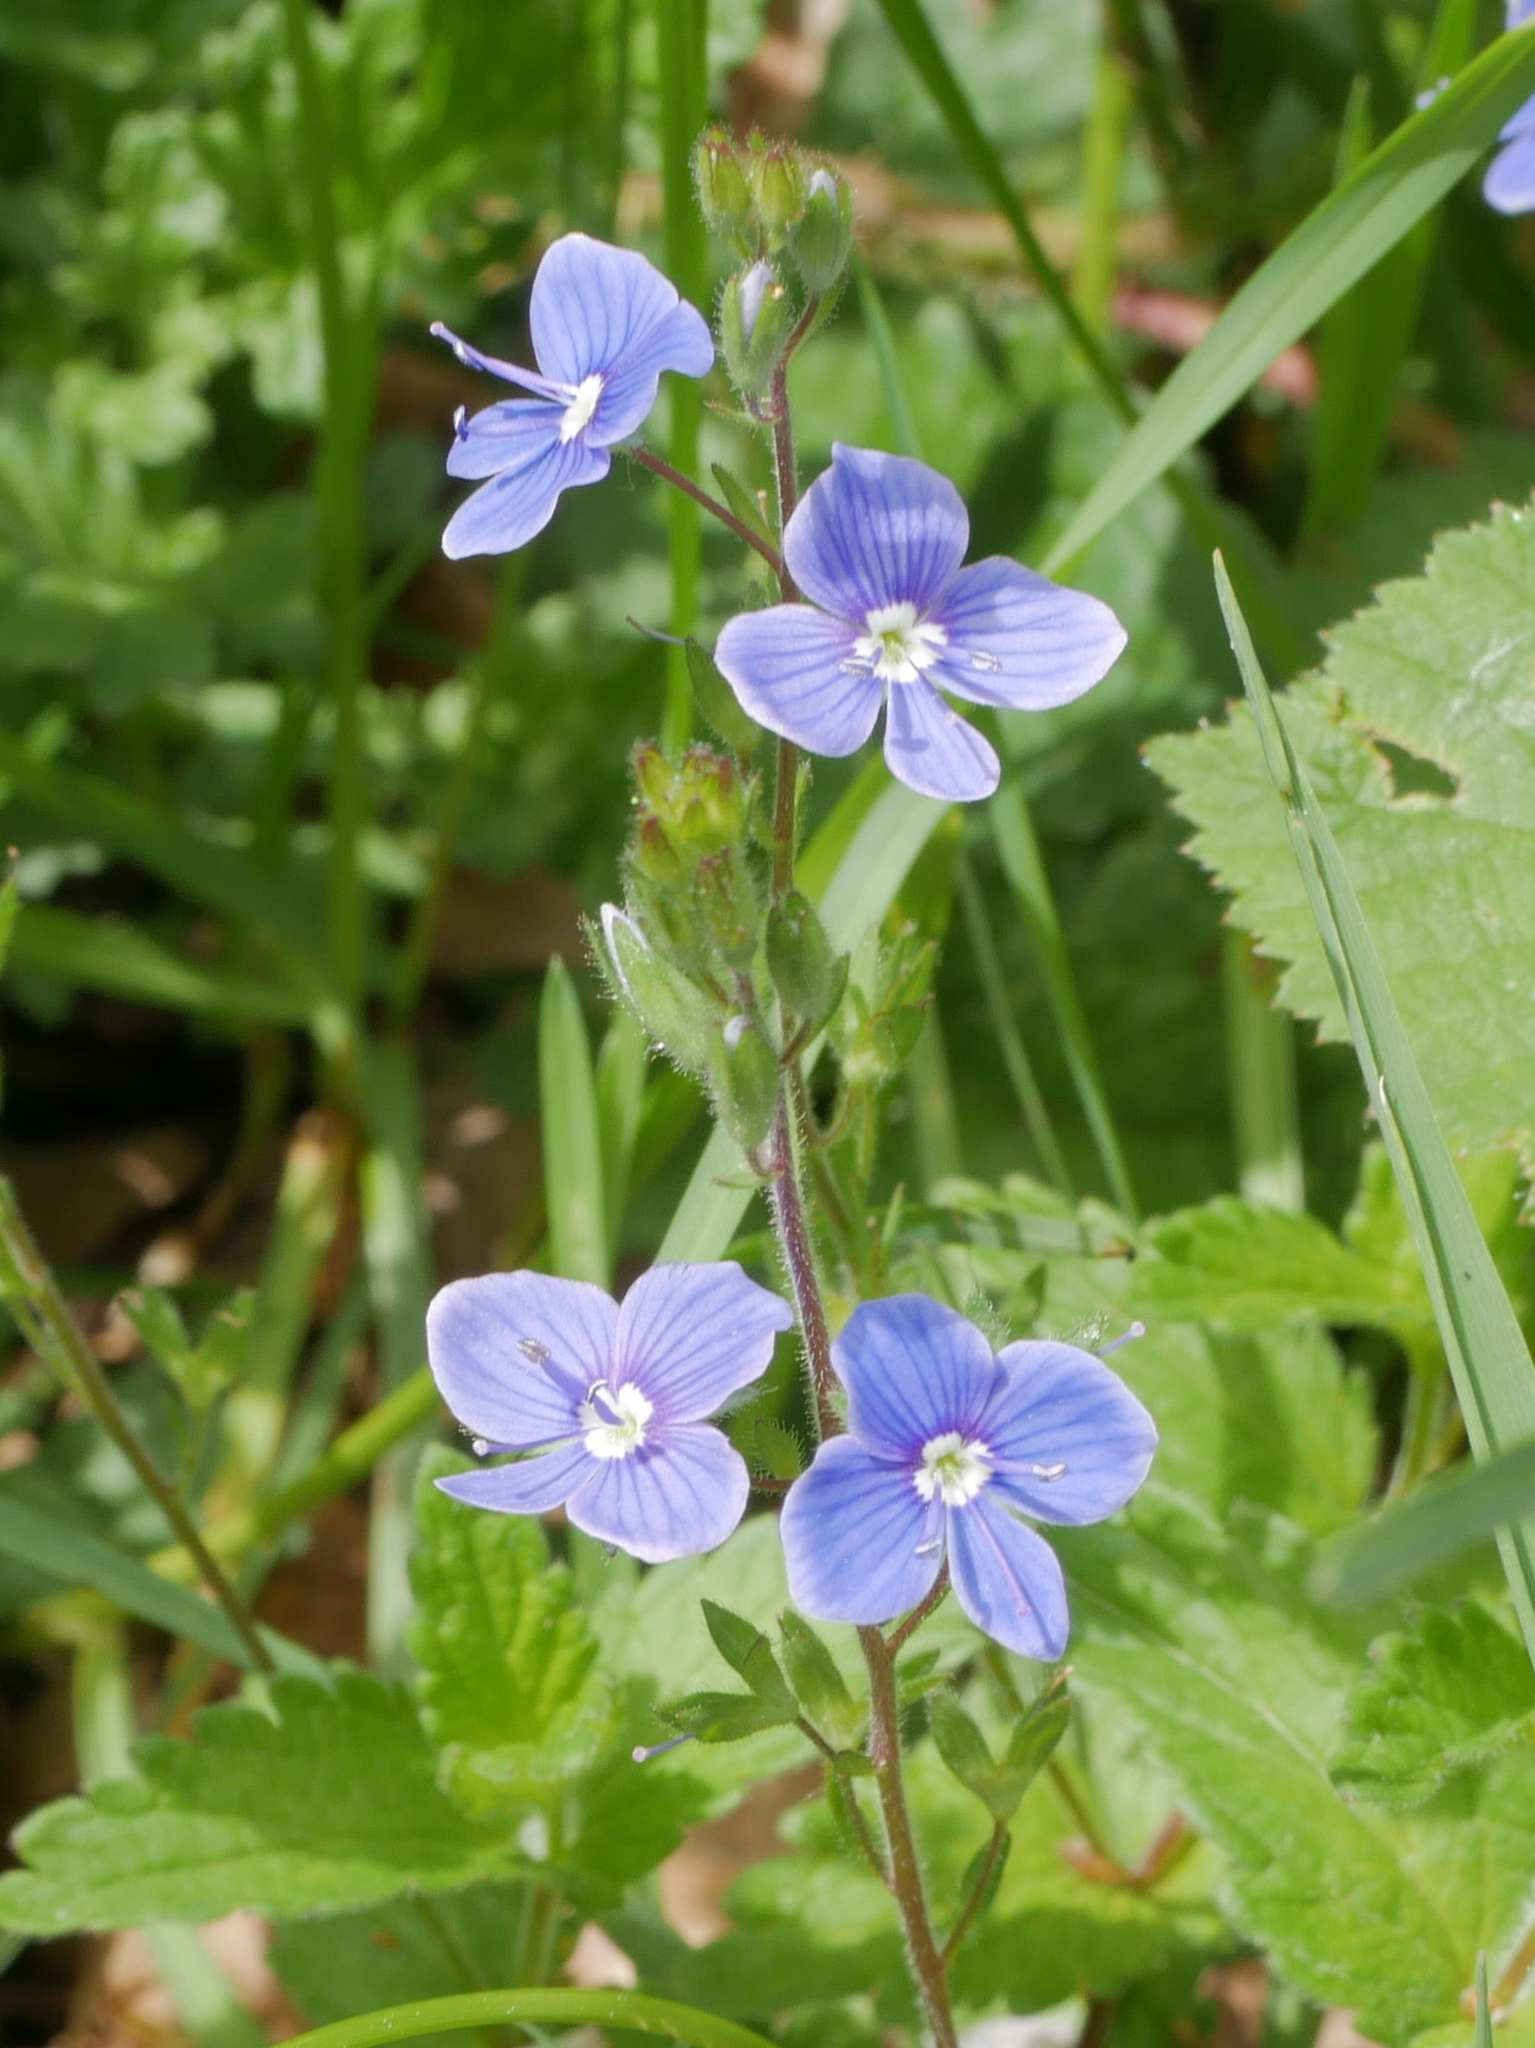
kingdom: Plantae
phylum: Tracheophyta
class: Magnoliopsida
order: Lamiales
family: Plantaginaceae
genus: Veronica
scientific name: Veronica chamaedrys
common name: Germander speedwell
